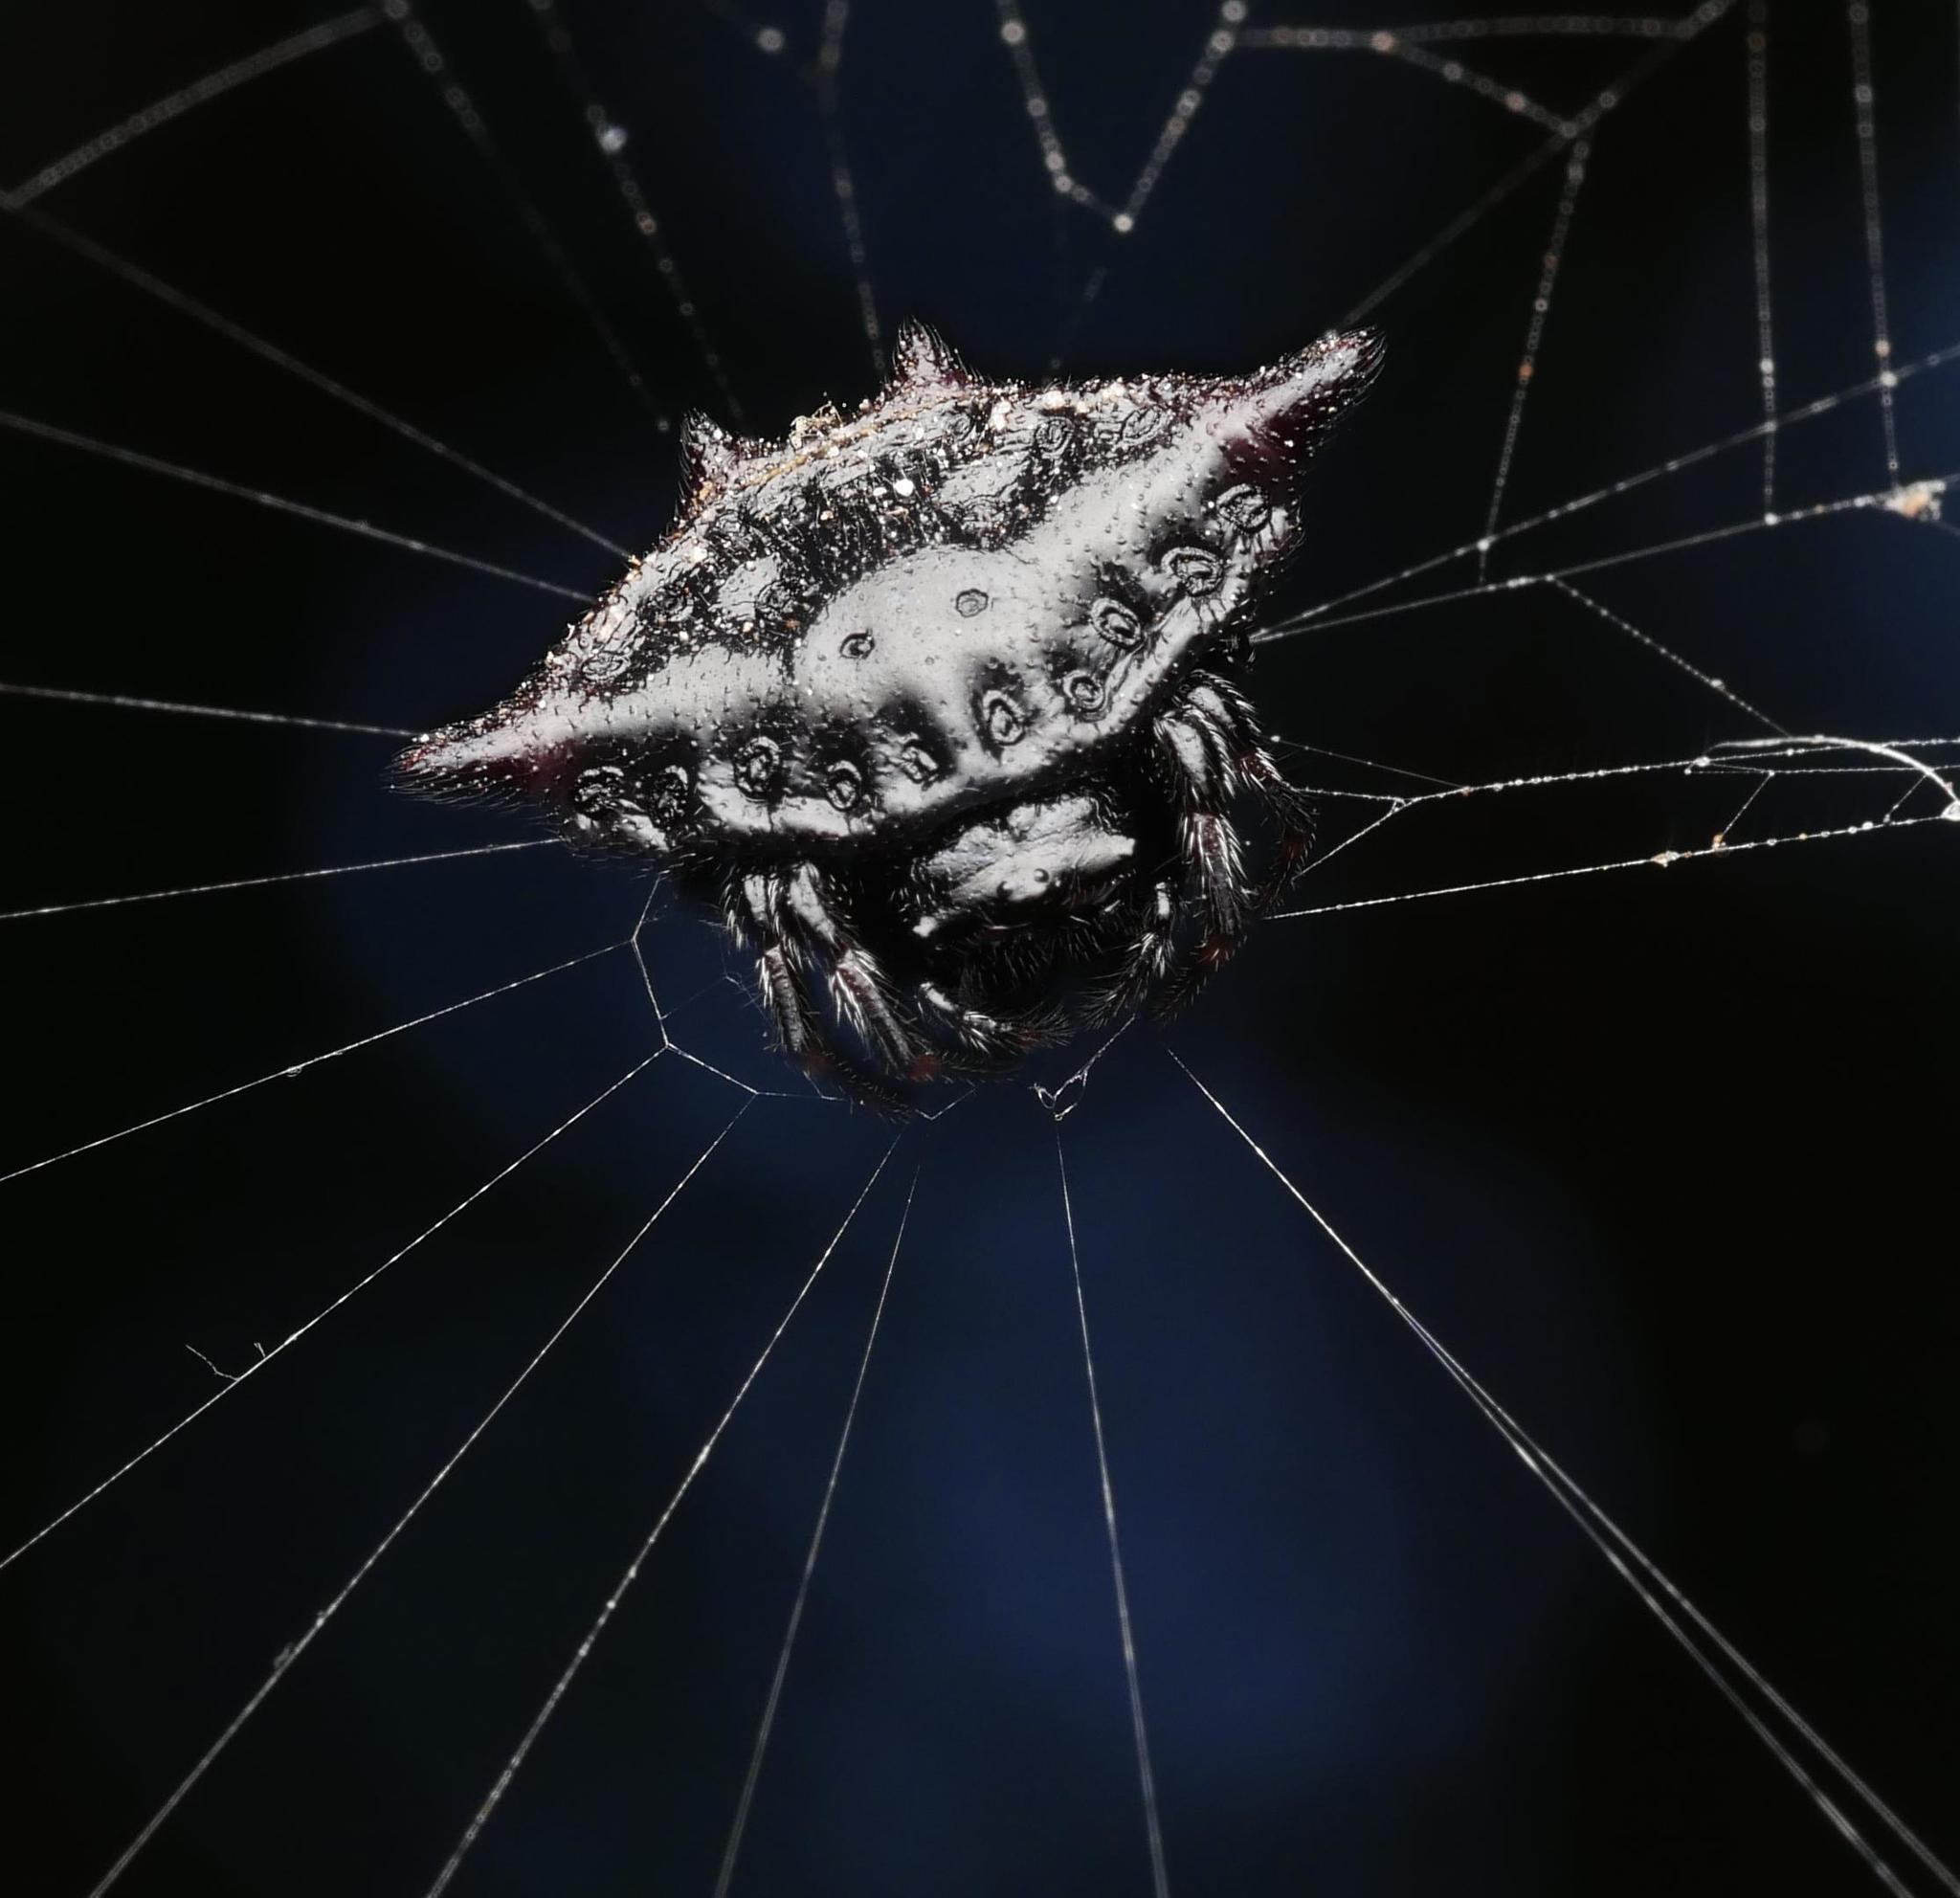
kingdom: Animalia
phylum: Arthropoda
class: Arachnida
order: Araneae
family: Araneidae
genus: Gasteracantha
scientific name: Gasteracantha cancriformis
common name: Orb weavers
